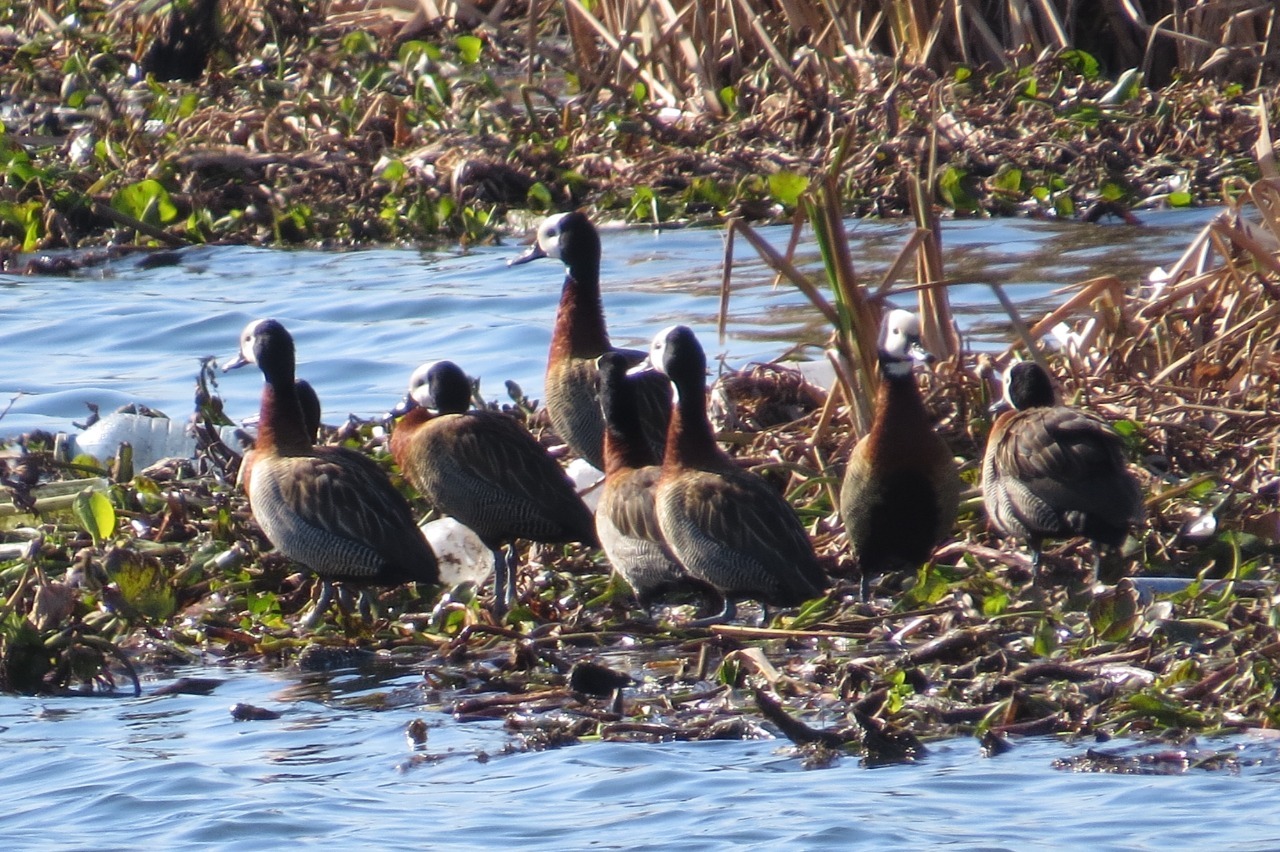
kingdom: Animalia
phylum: Chordata
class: Aves
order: Anseriformes
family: Anatidae
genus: Dendrocygna
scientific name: Dendrocygna viduata
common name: White-faced whistling duck
